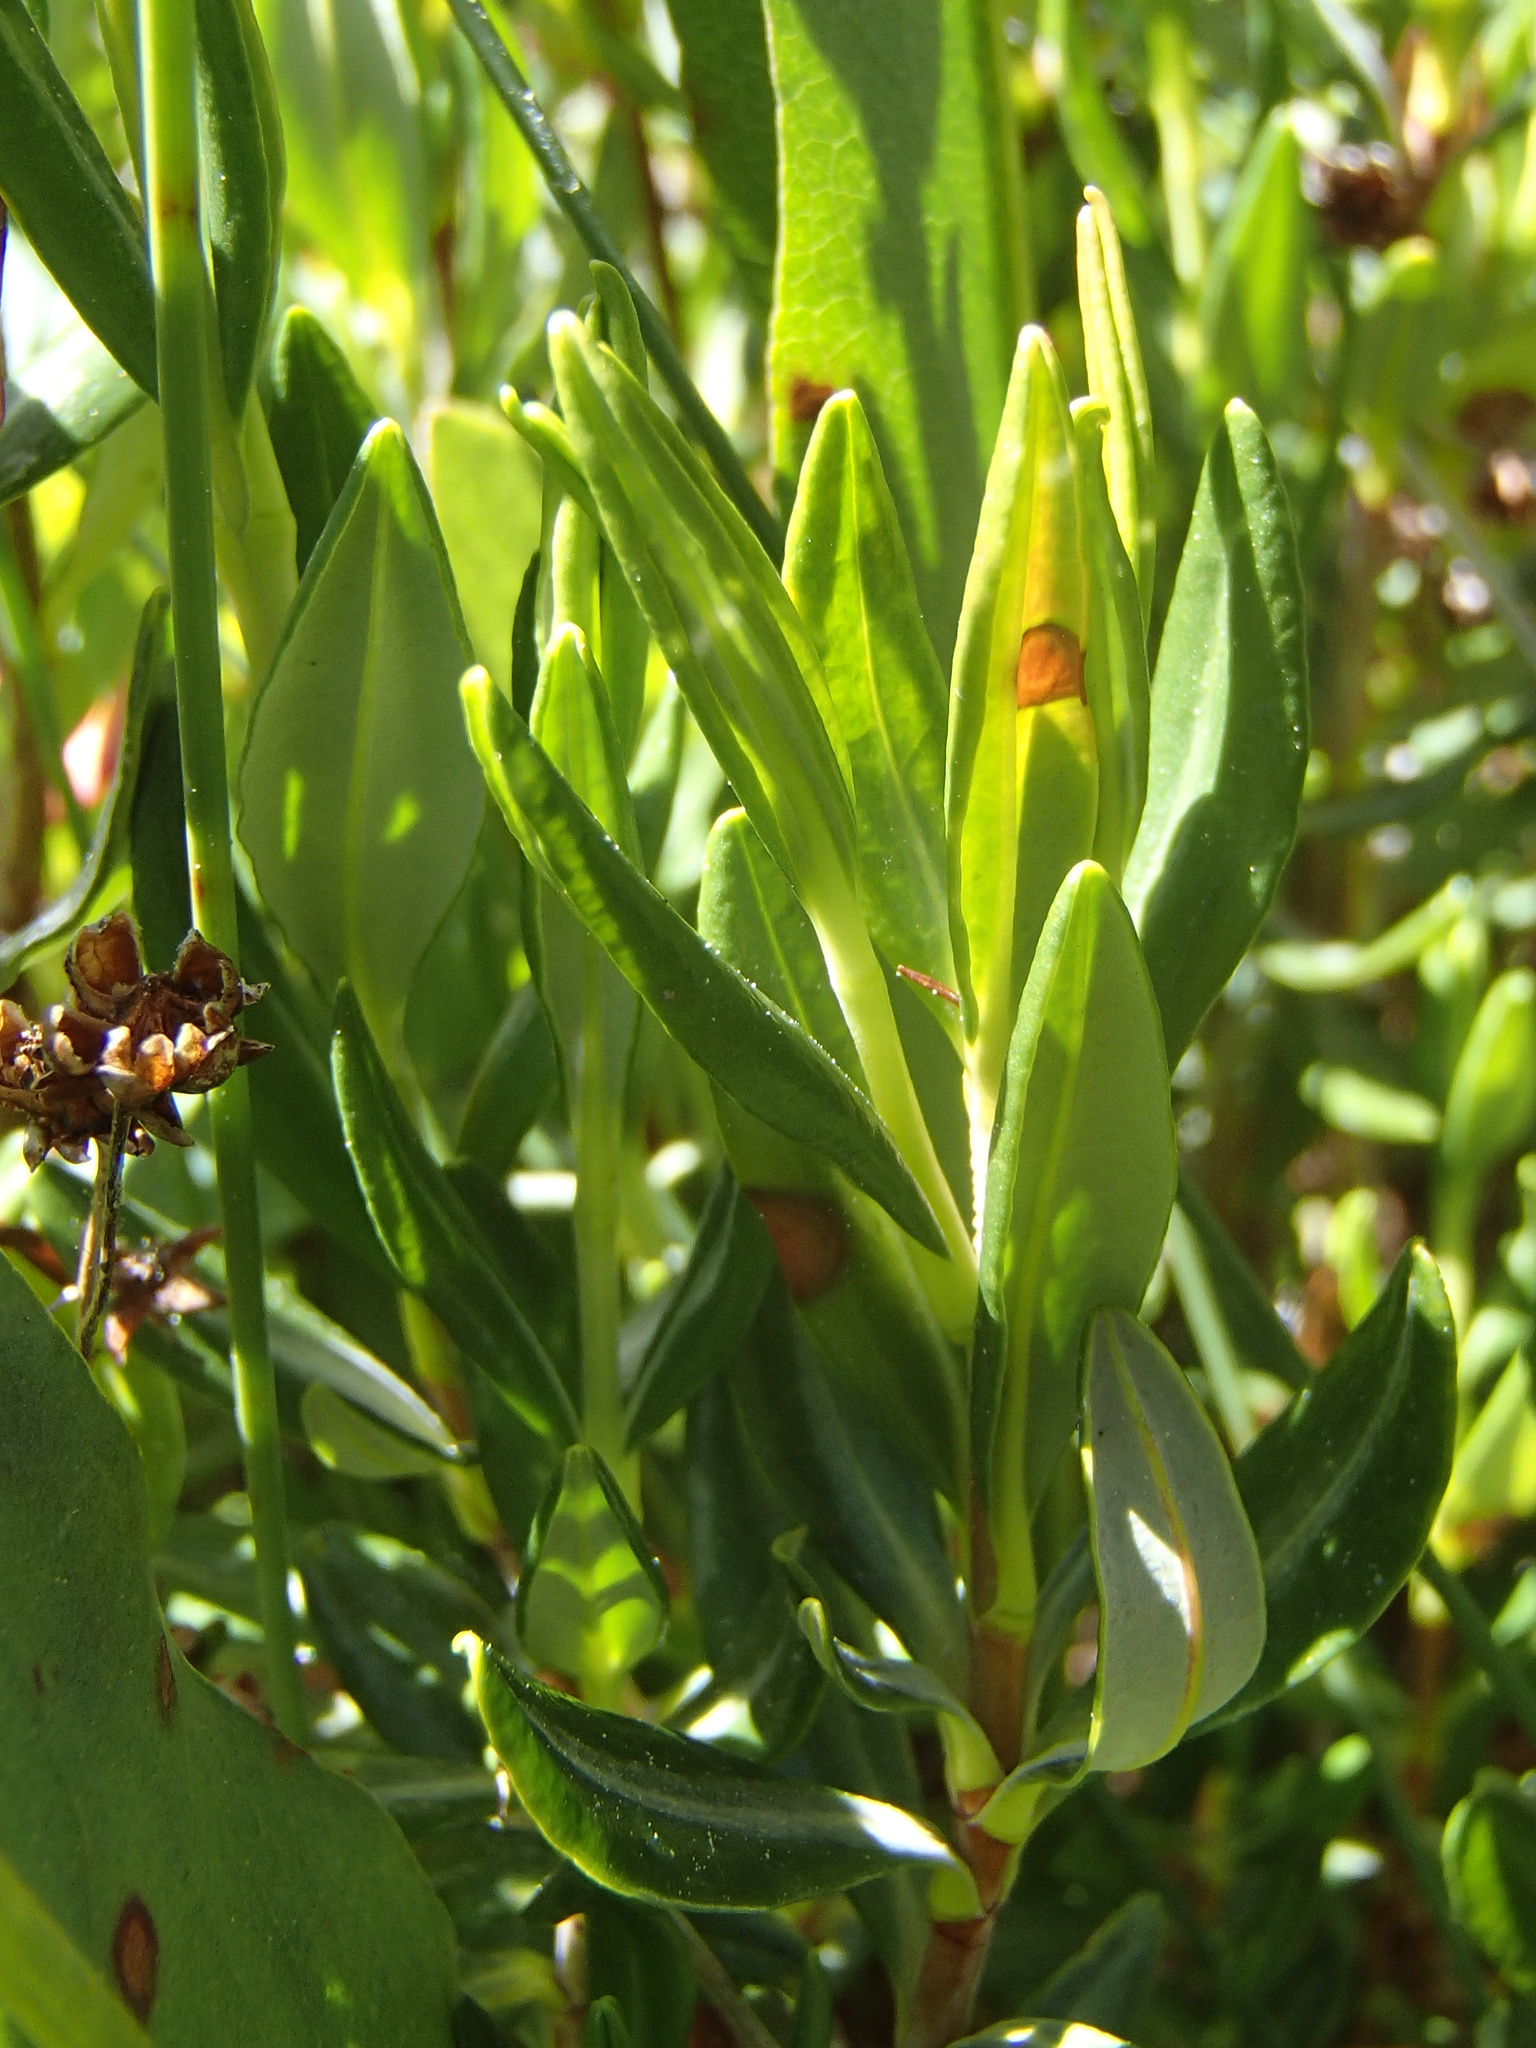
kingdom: Plantae
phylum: Tracheophyta
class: Magnoliopsida
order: Ericales
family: Ericaceae
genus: Kalmia
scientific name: Kalmia microphylla
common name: Alpine bog laurel
